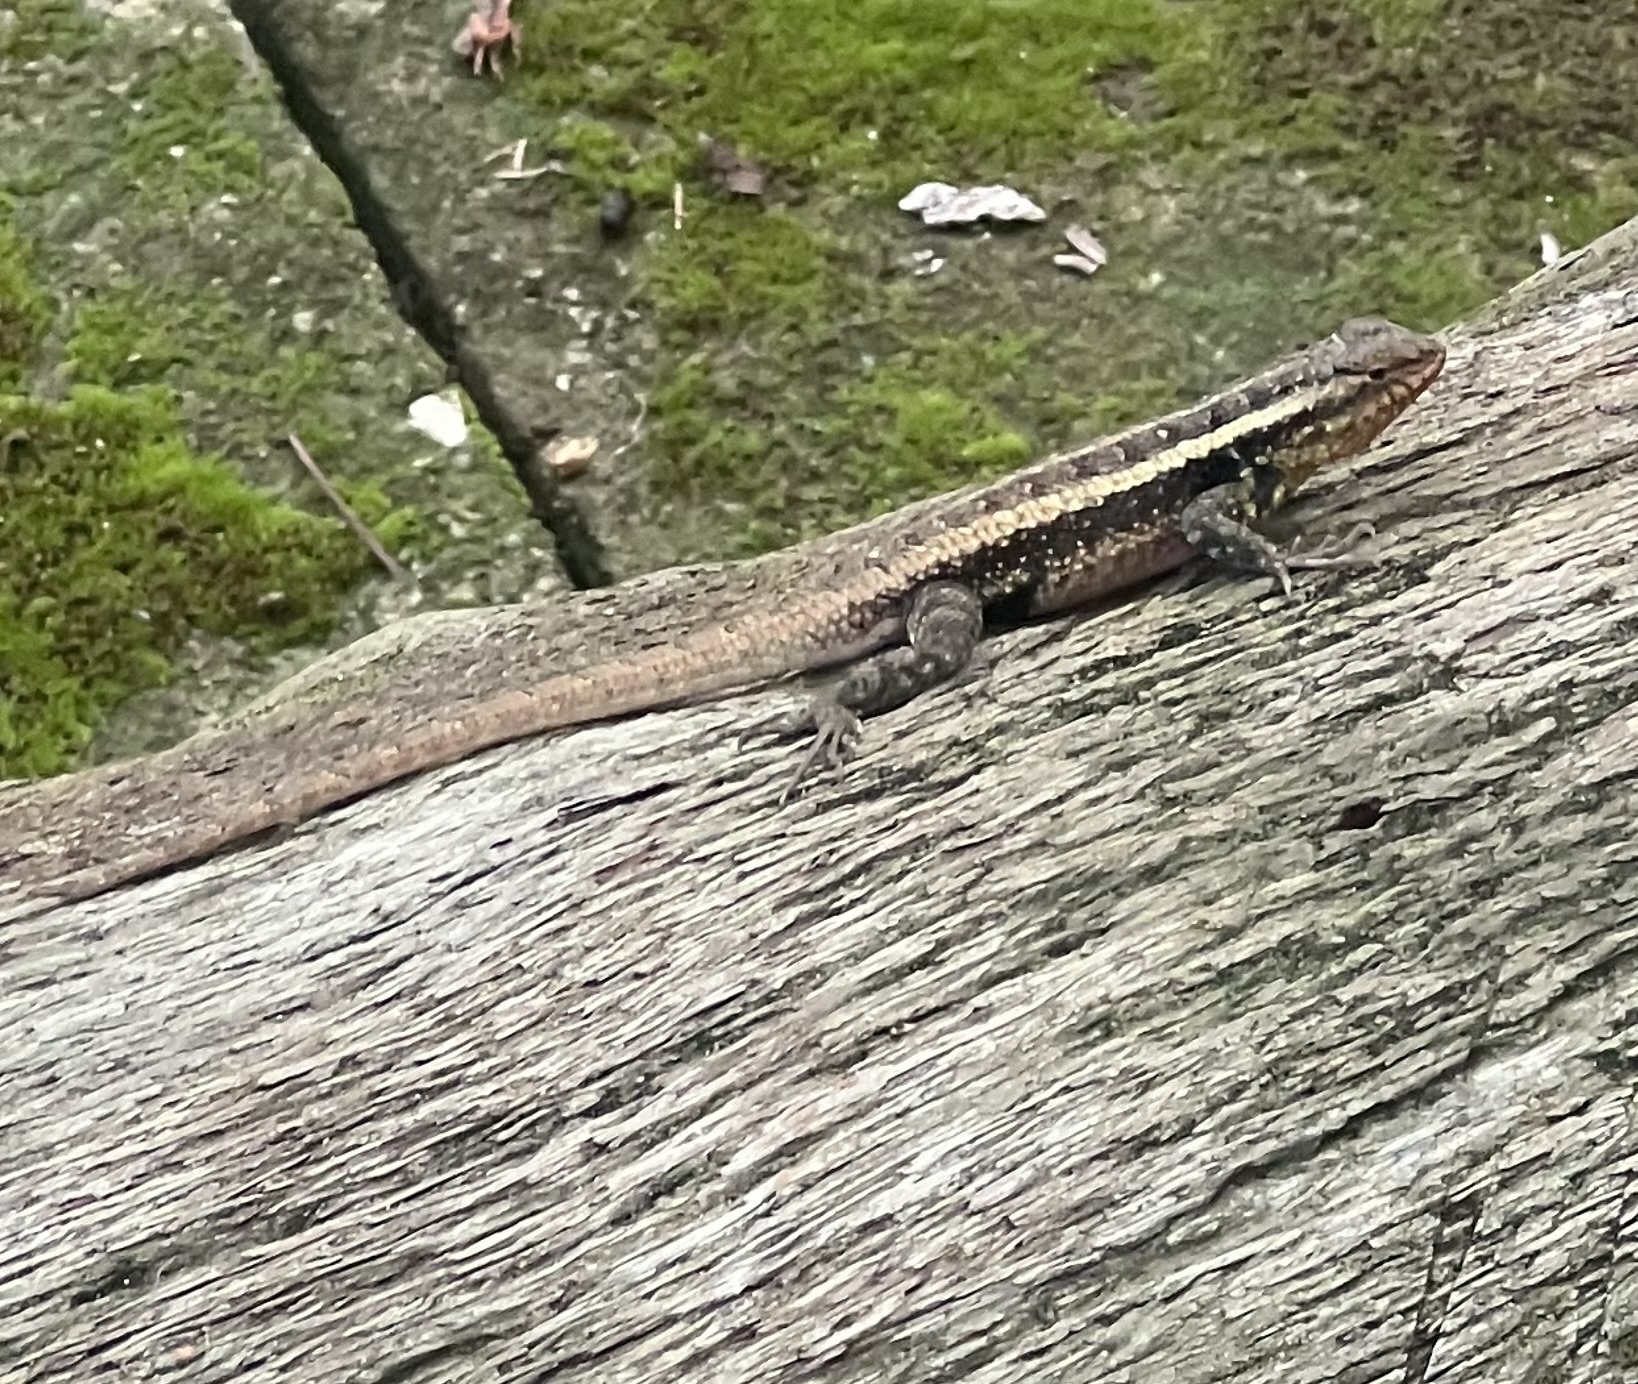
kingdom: Animalia
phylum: Chordata
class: Squamata
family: Phrynosomatidae
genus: Sceloporus
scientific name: Sceloporus variabilis
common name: Rosebelly lizard
